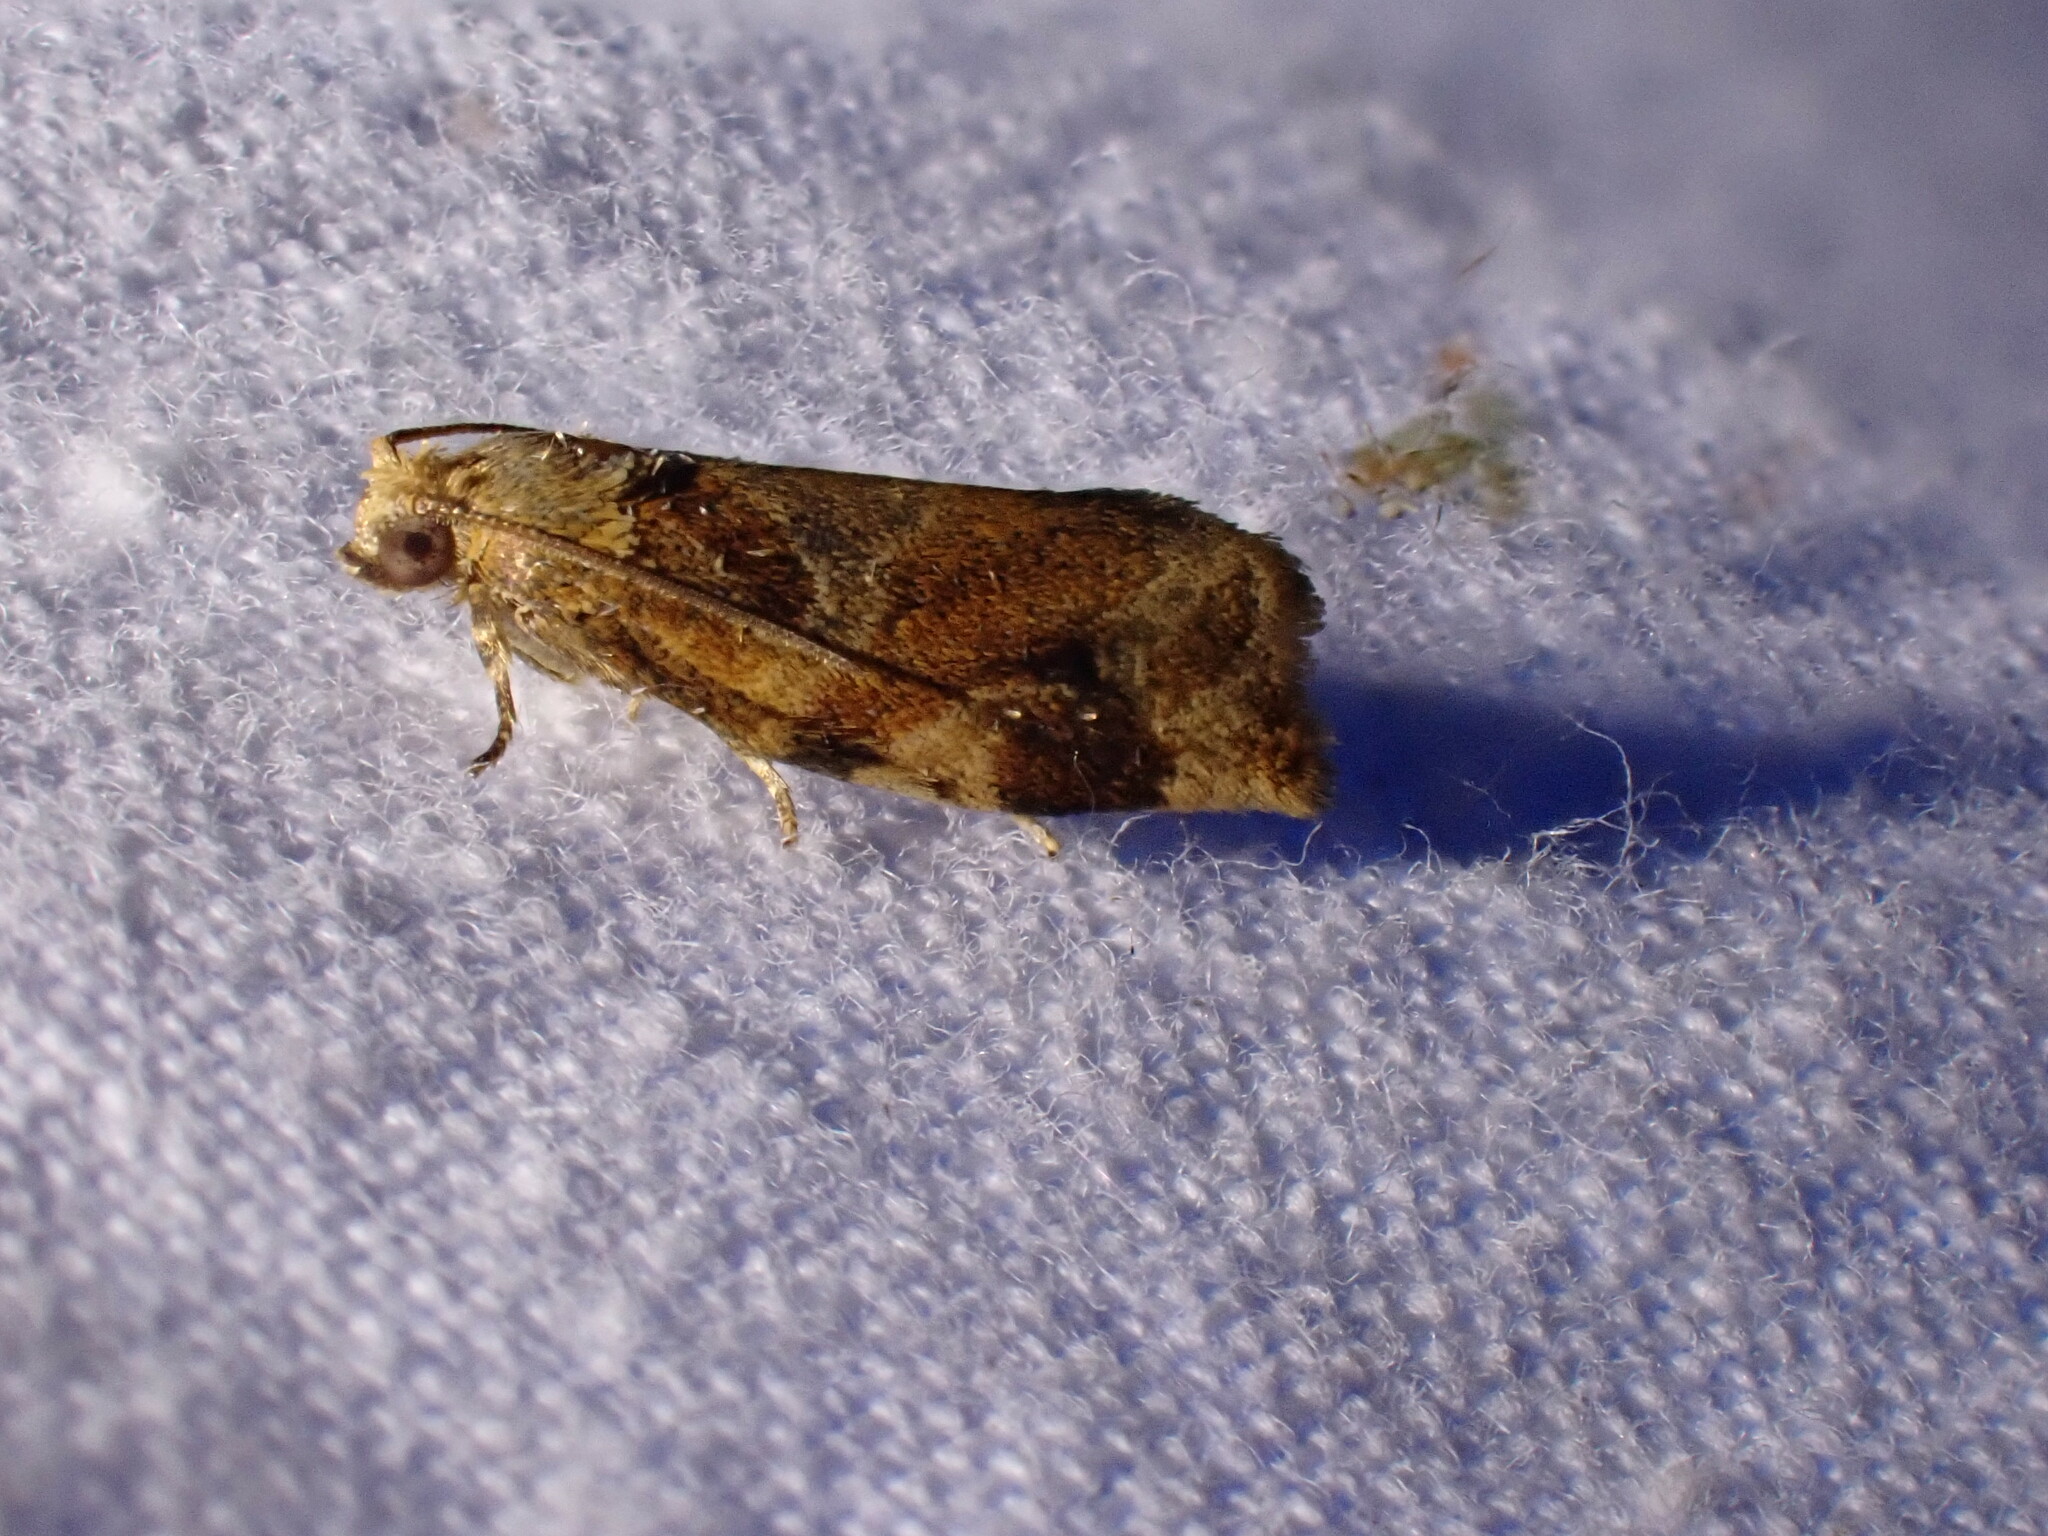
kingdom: Animalia
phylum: Arthropoda
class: Insecta
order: Lepidoptera
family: Tortricidae
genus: Archips
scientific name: Archips xylosteana
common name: Variegated golden tortrix
